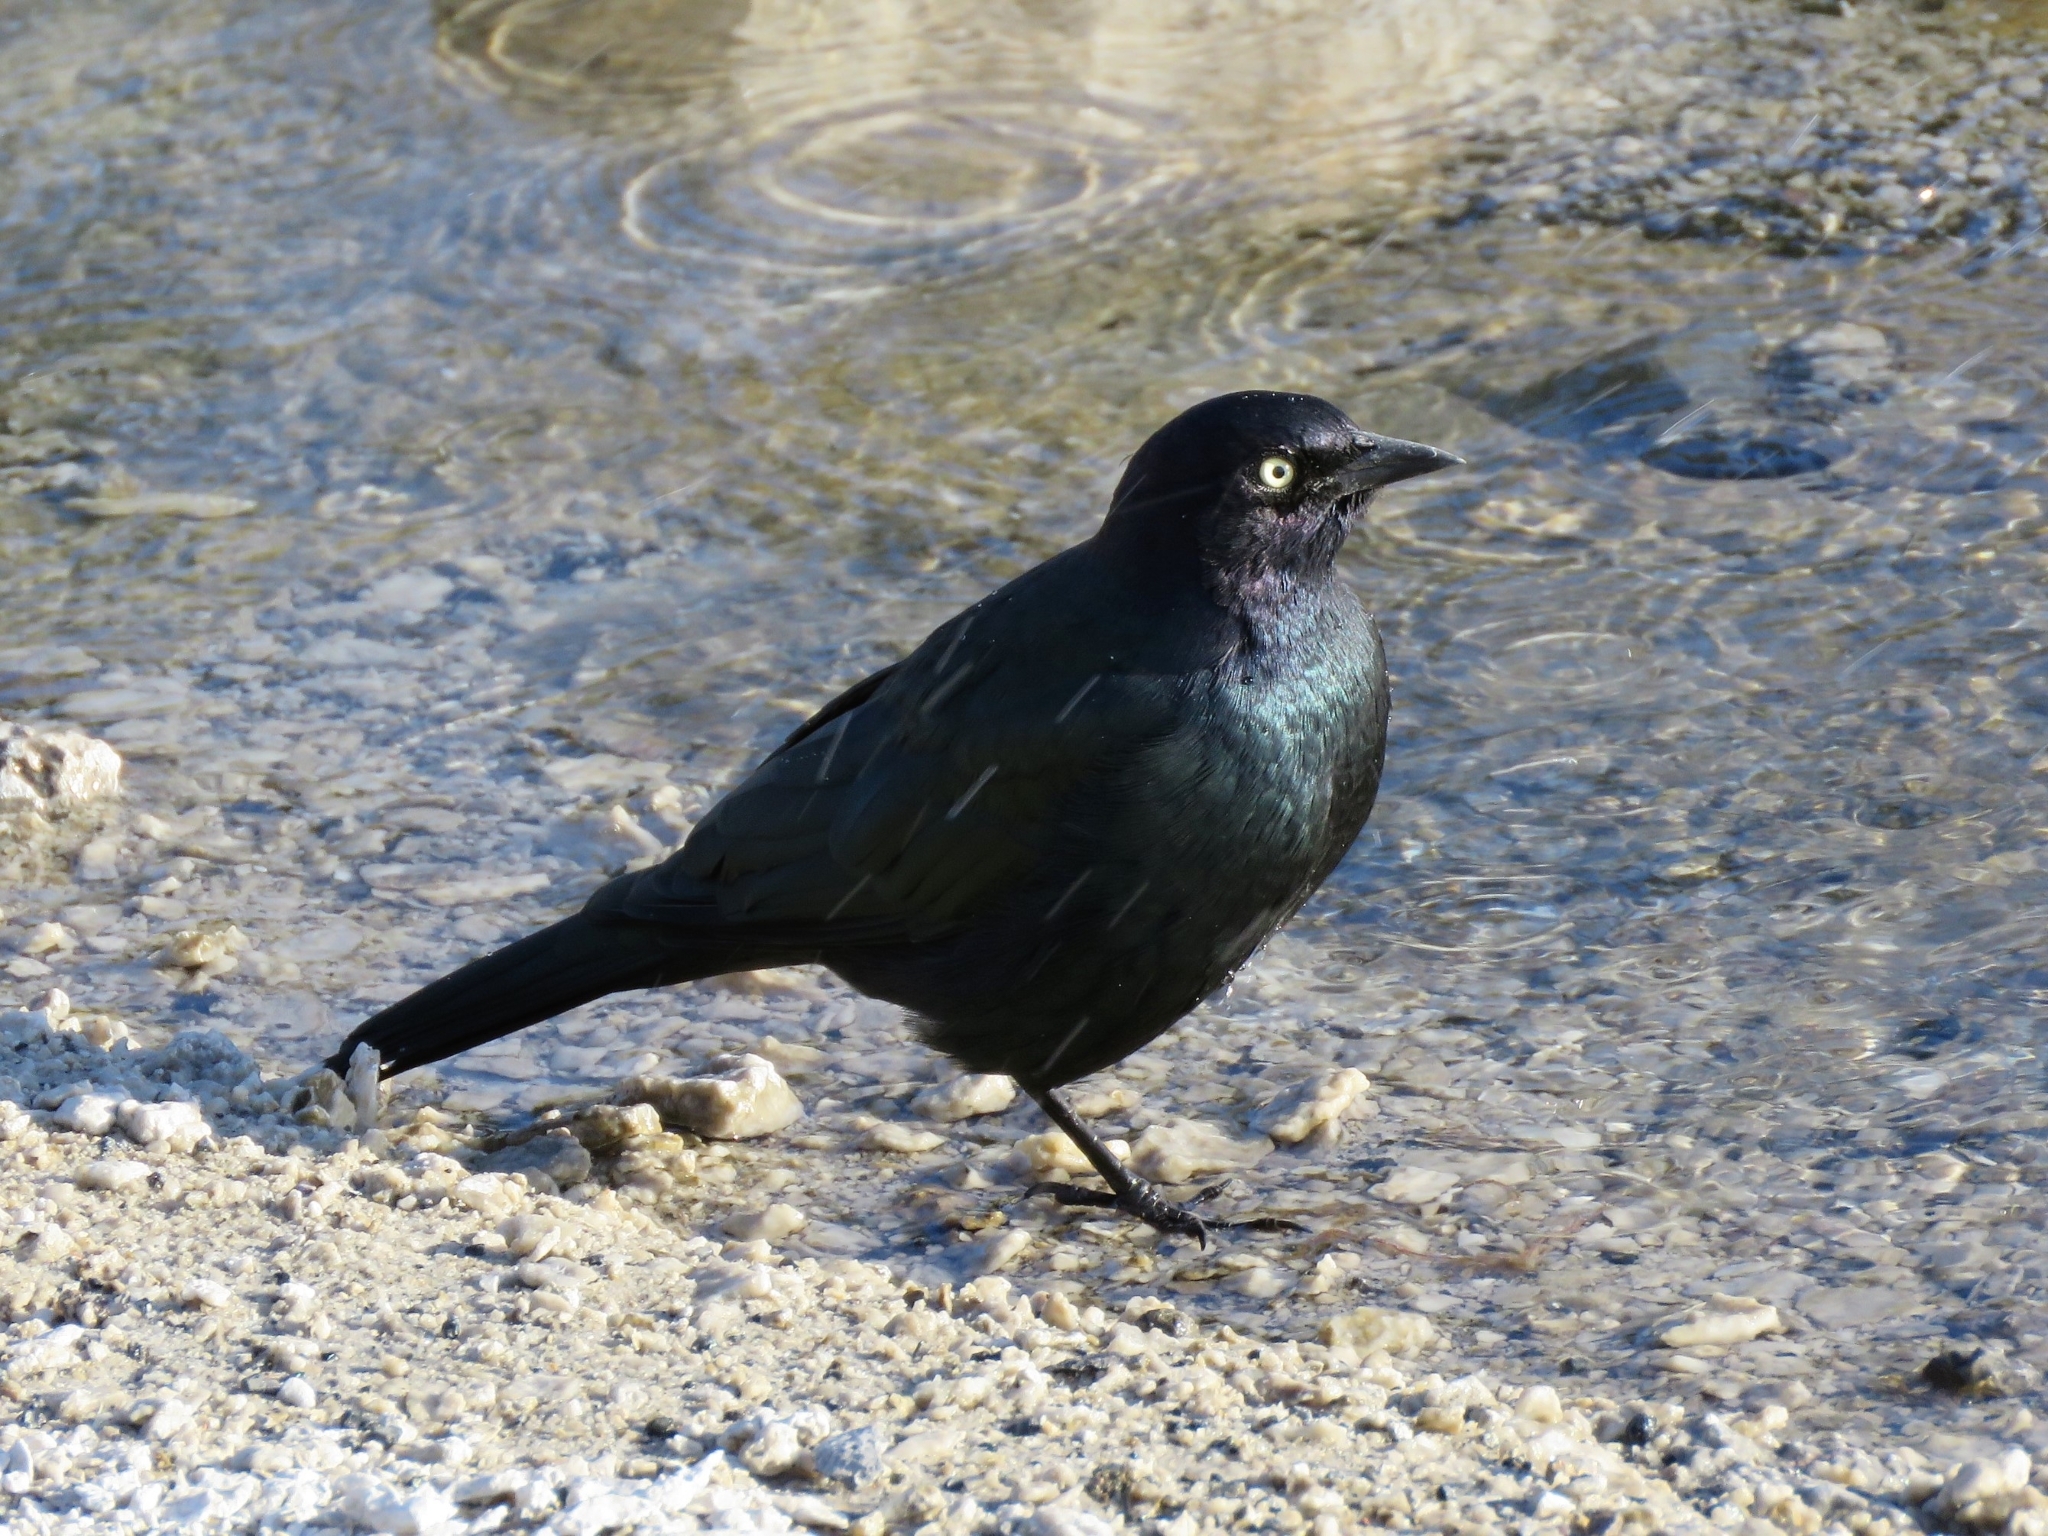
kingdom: Animalia
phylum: Chordata
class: Aves
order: Passeriformes
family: Icteridae
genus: Euphagus
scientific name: Euphagus cyanocephalus
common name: Brewer's blackbird
